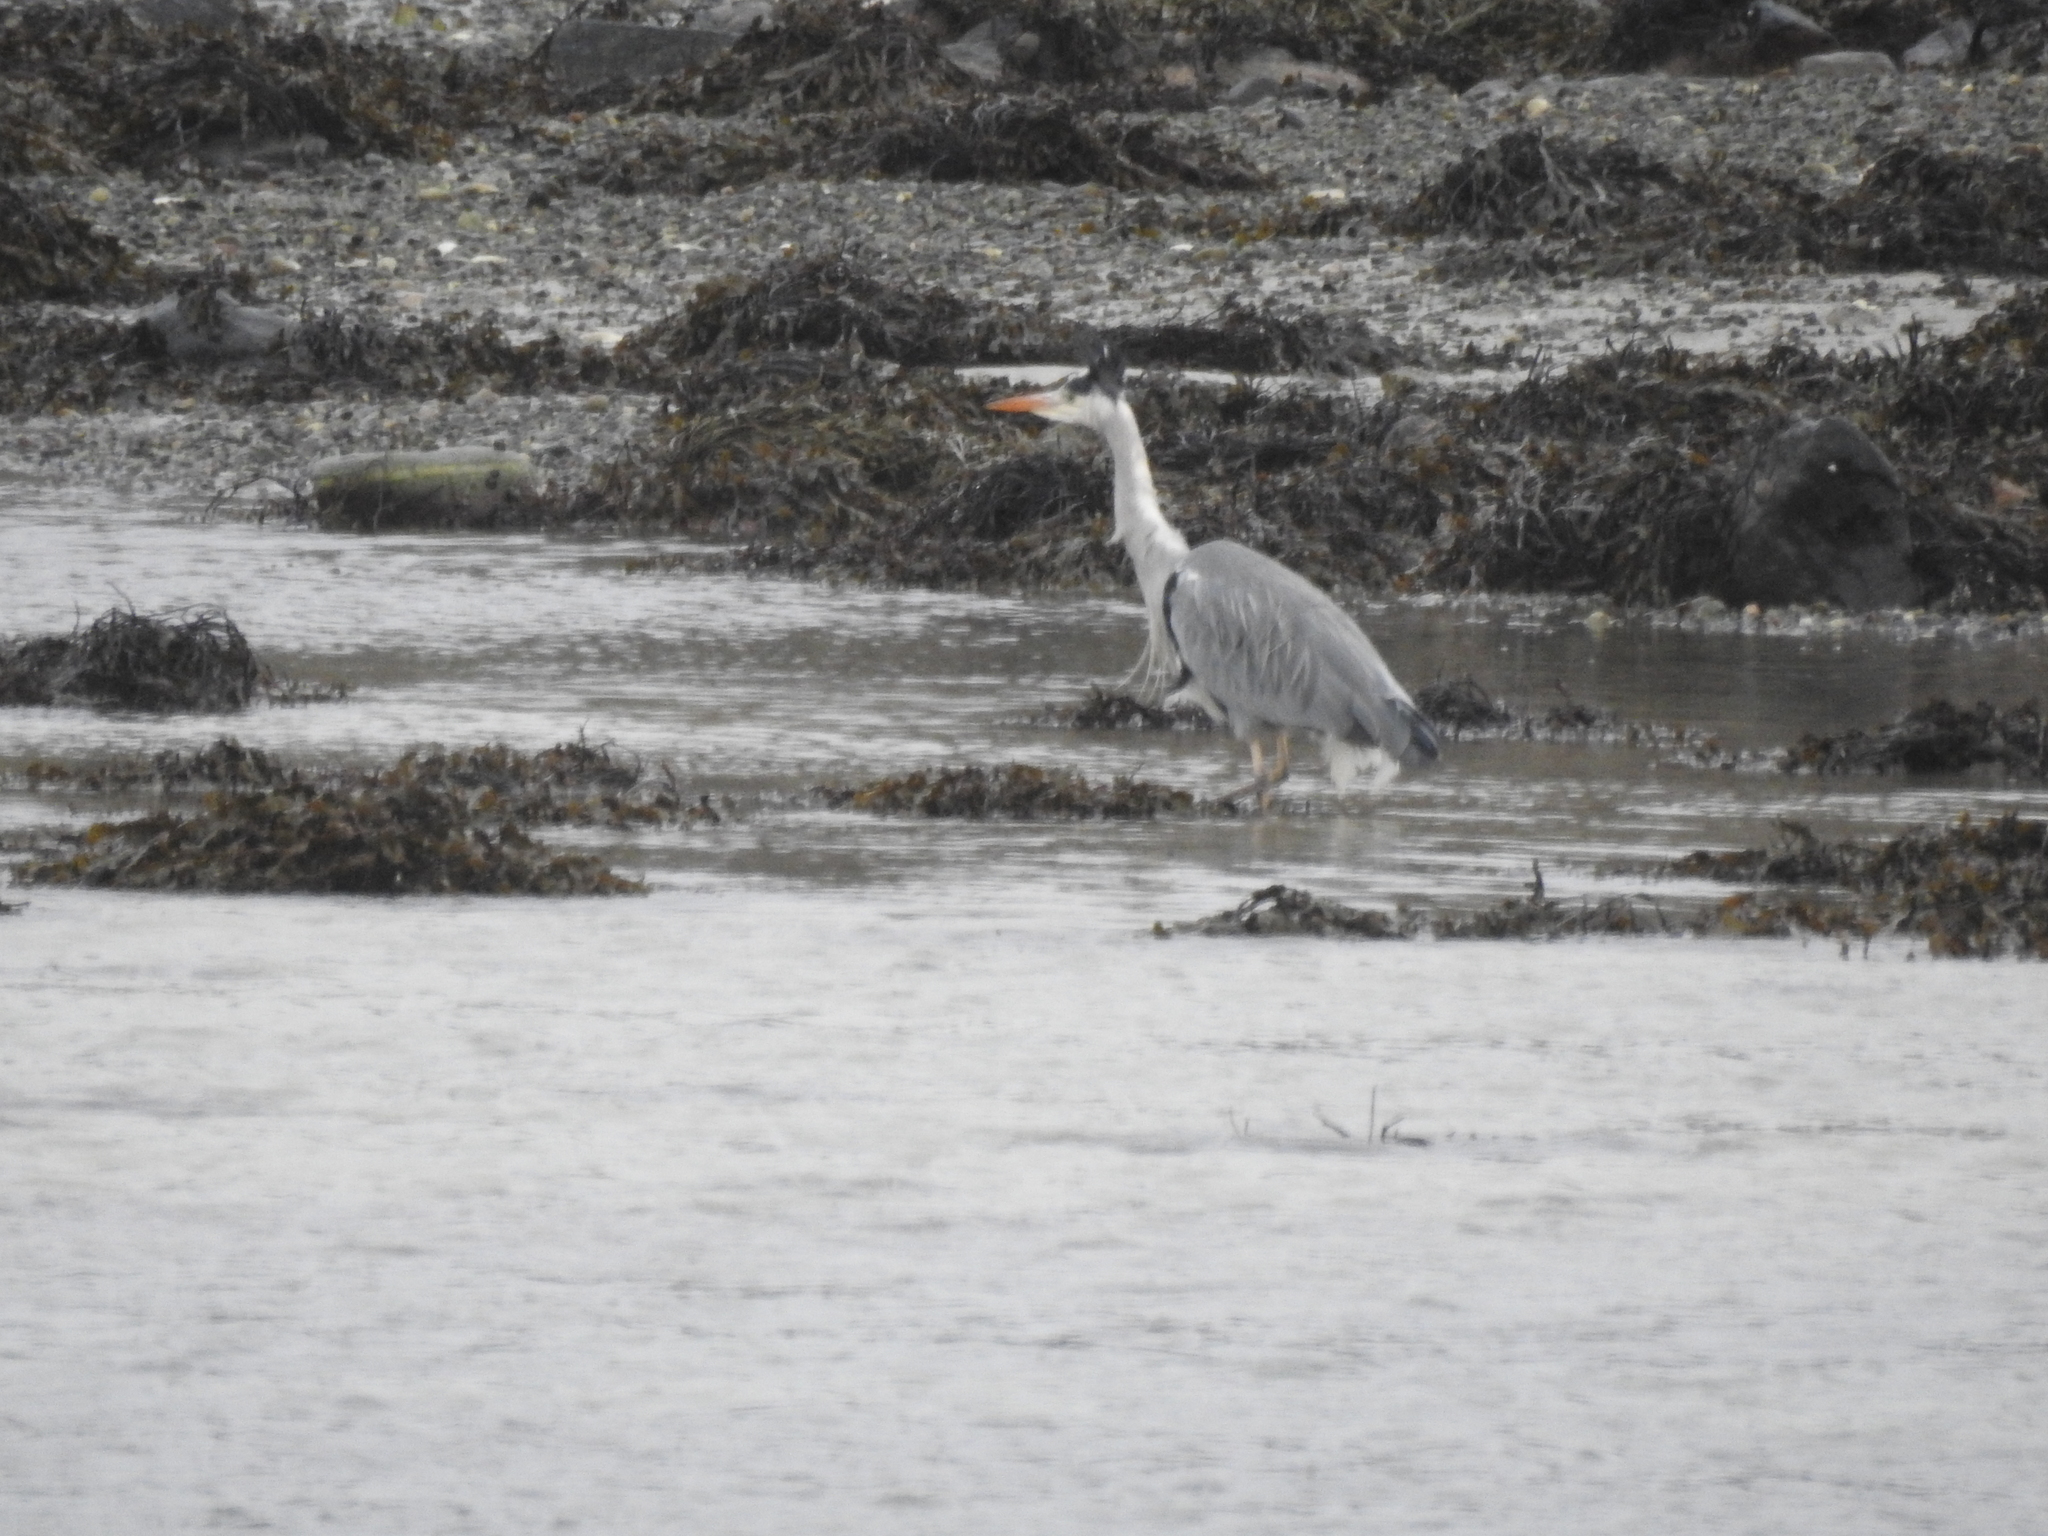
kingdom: Animalia
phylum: Chordata
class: Aves
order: Pelecaniformes
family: Ardeidae
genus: Ardea
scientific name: Ardea cinerea
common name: Grey heron
